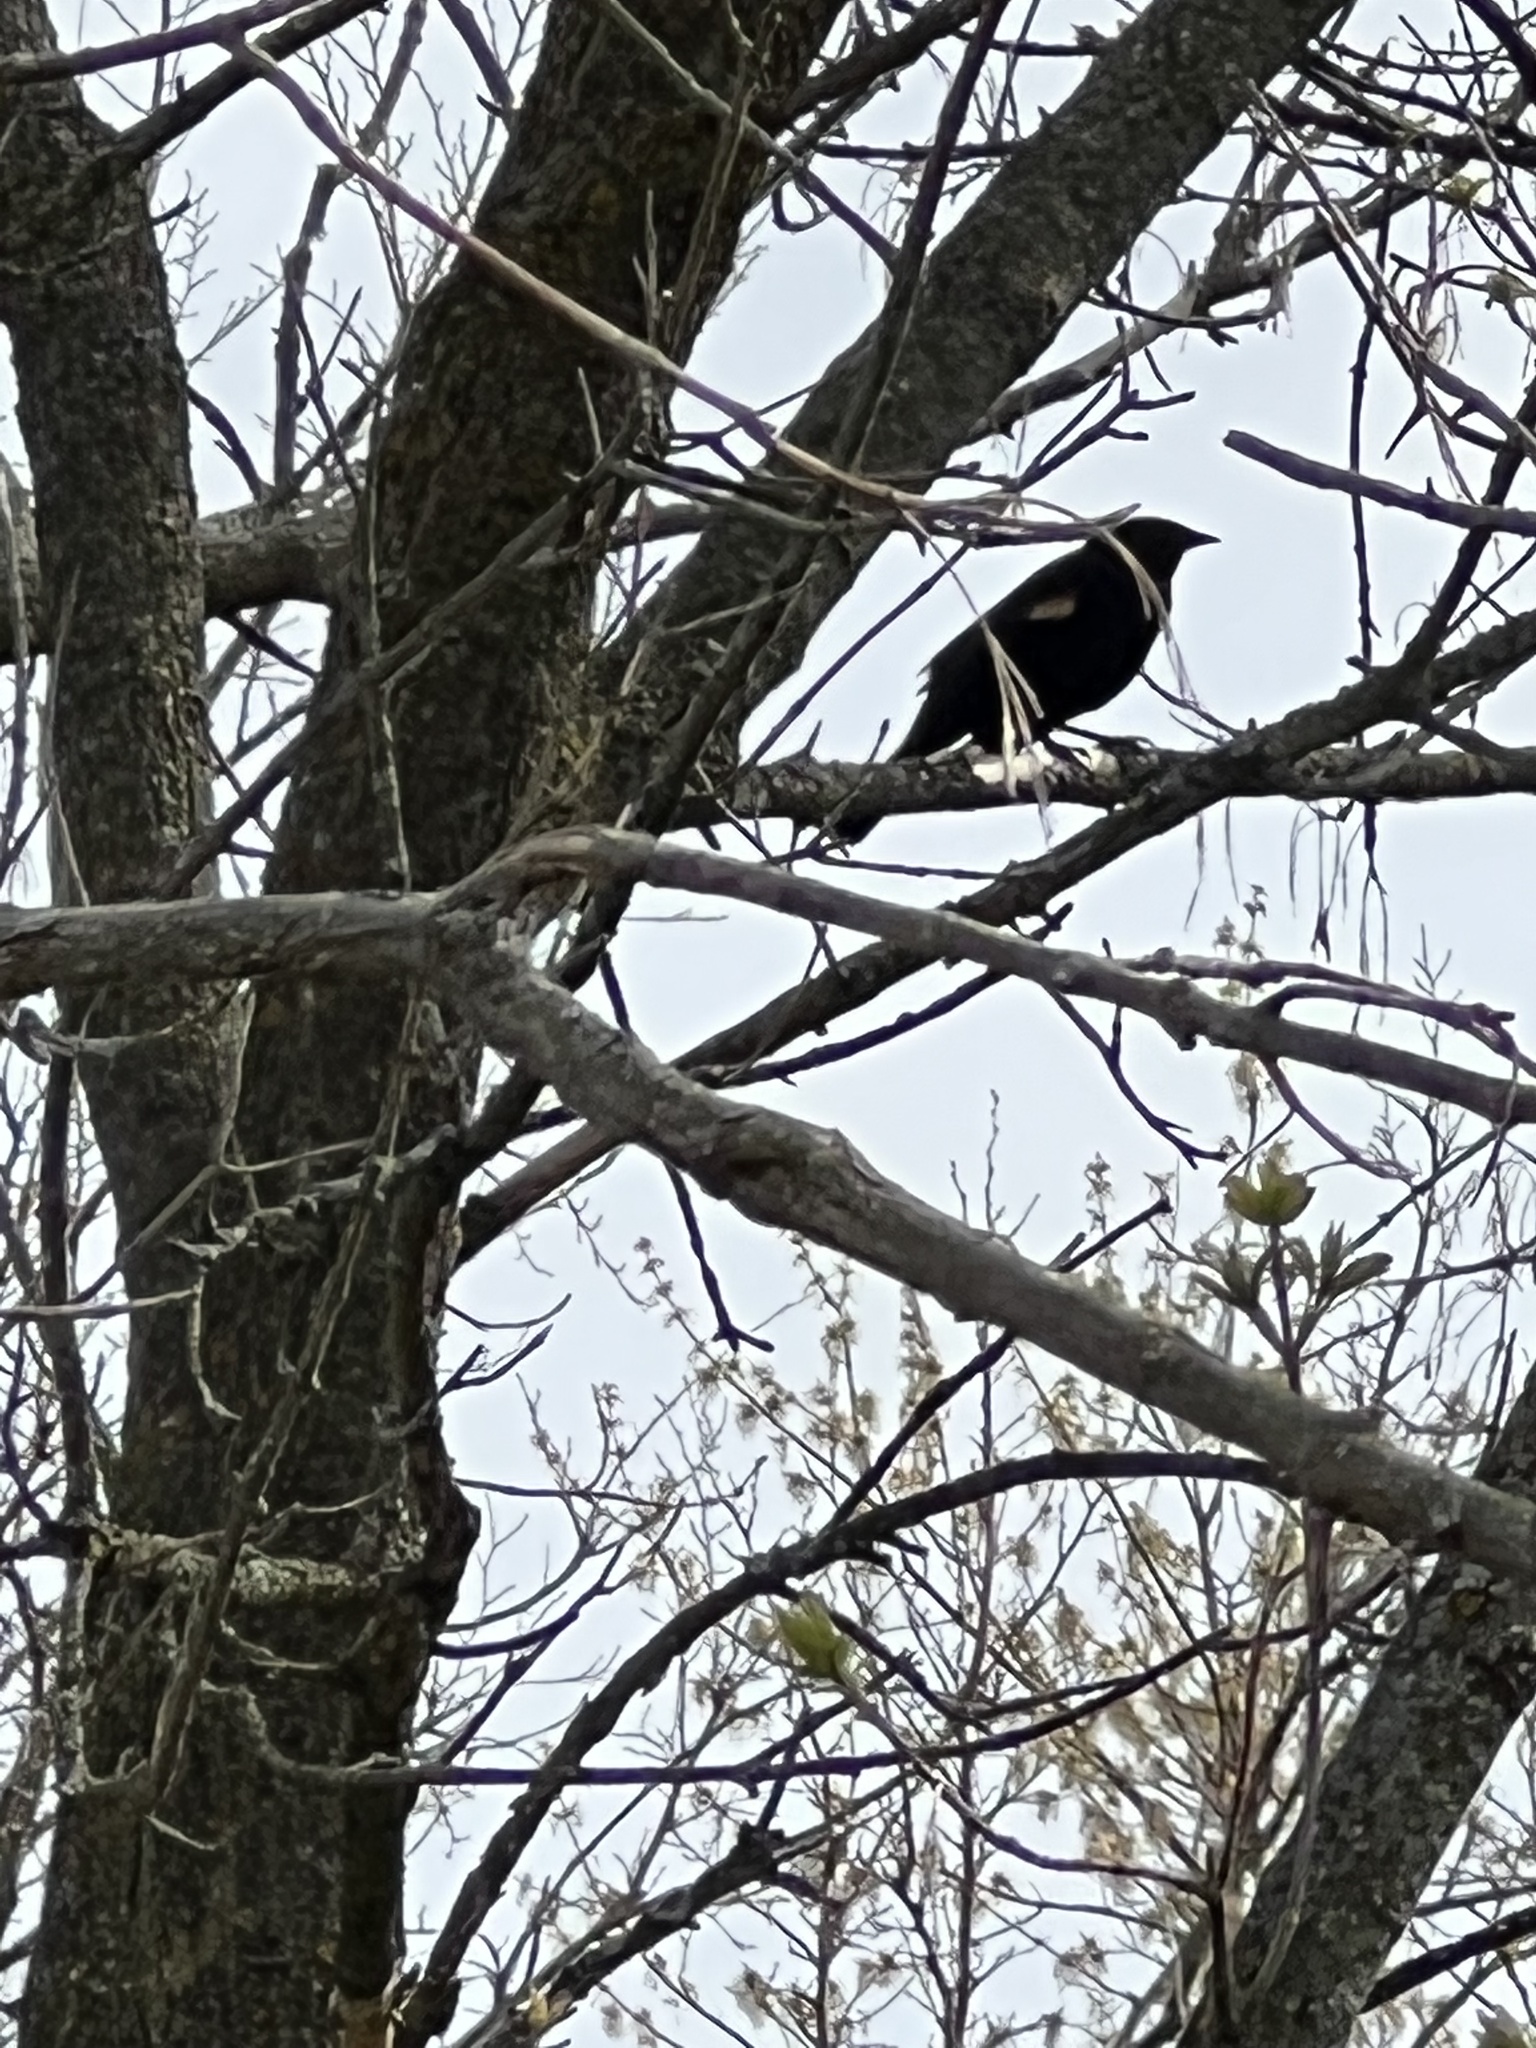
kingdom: Animalia
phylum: Chordata
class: Aves
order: Passeriformes
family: Icteridae
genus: Agelaius
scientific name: Agelaius phoeniceus
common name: Red-winged blackbird
